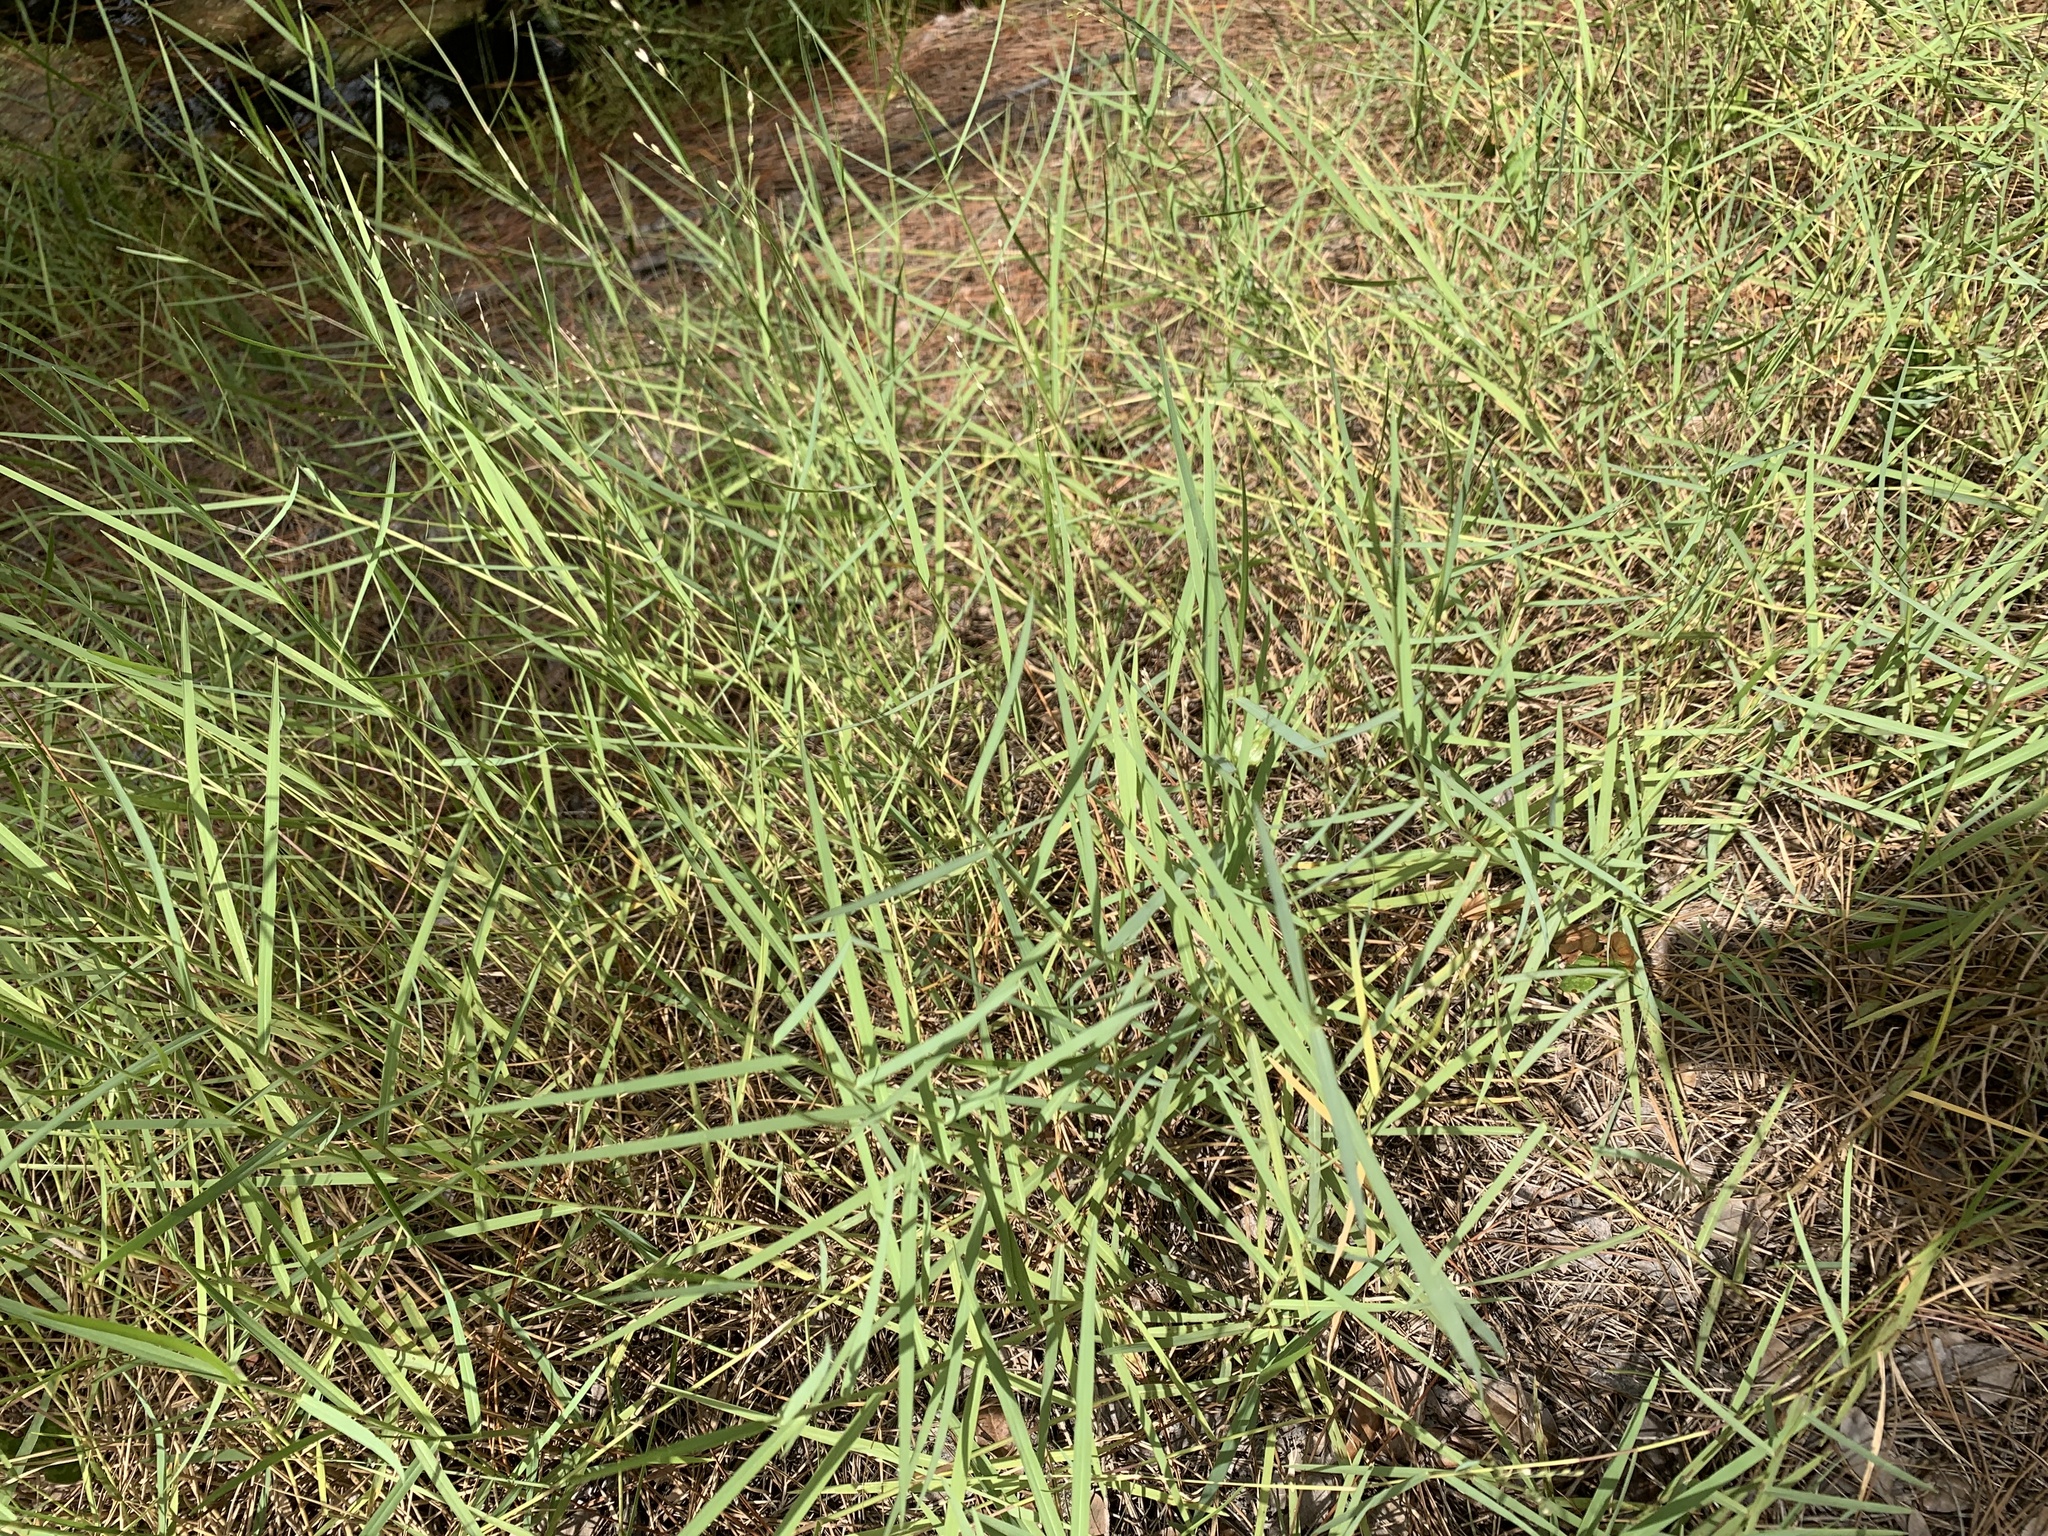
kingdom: Plantae
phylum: Tracheophyta
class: Liliopsida
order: Poales
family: Poaceae
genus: Panicum
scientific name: Panicum repens
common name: Torpedo grass
